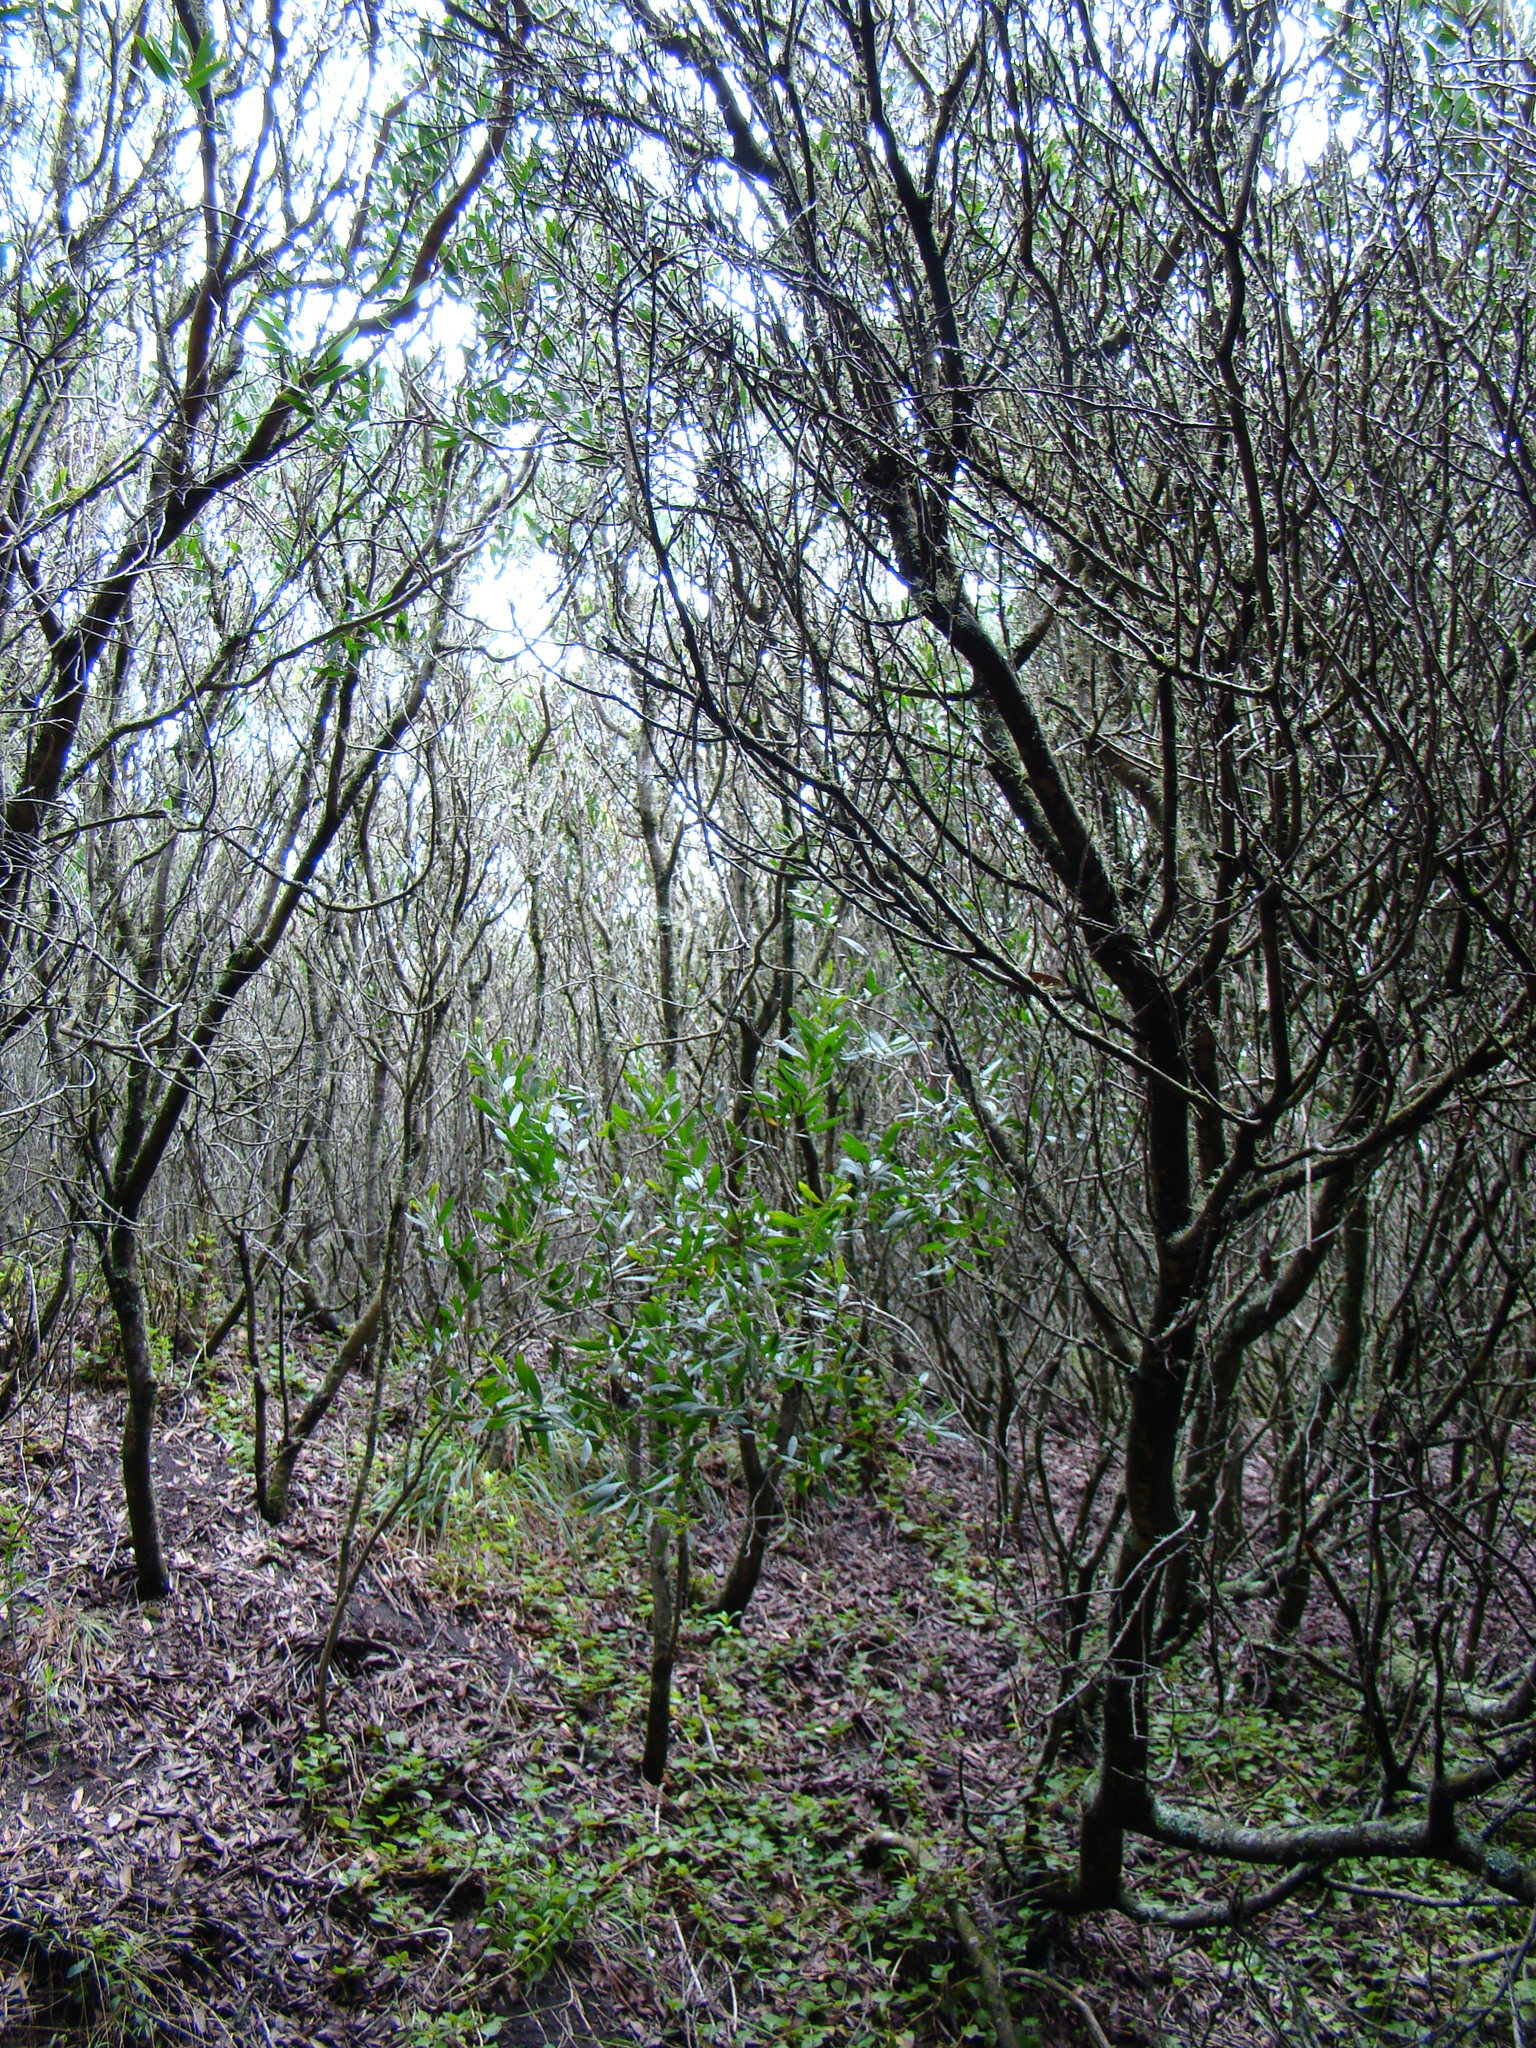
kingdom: Plantae
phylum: Tracheophyta
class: Magnoliopsida
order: Fabales
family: Fabaceae
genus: Acacia
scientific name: Acacia longifolia
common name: Sydney golden wattle
